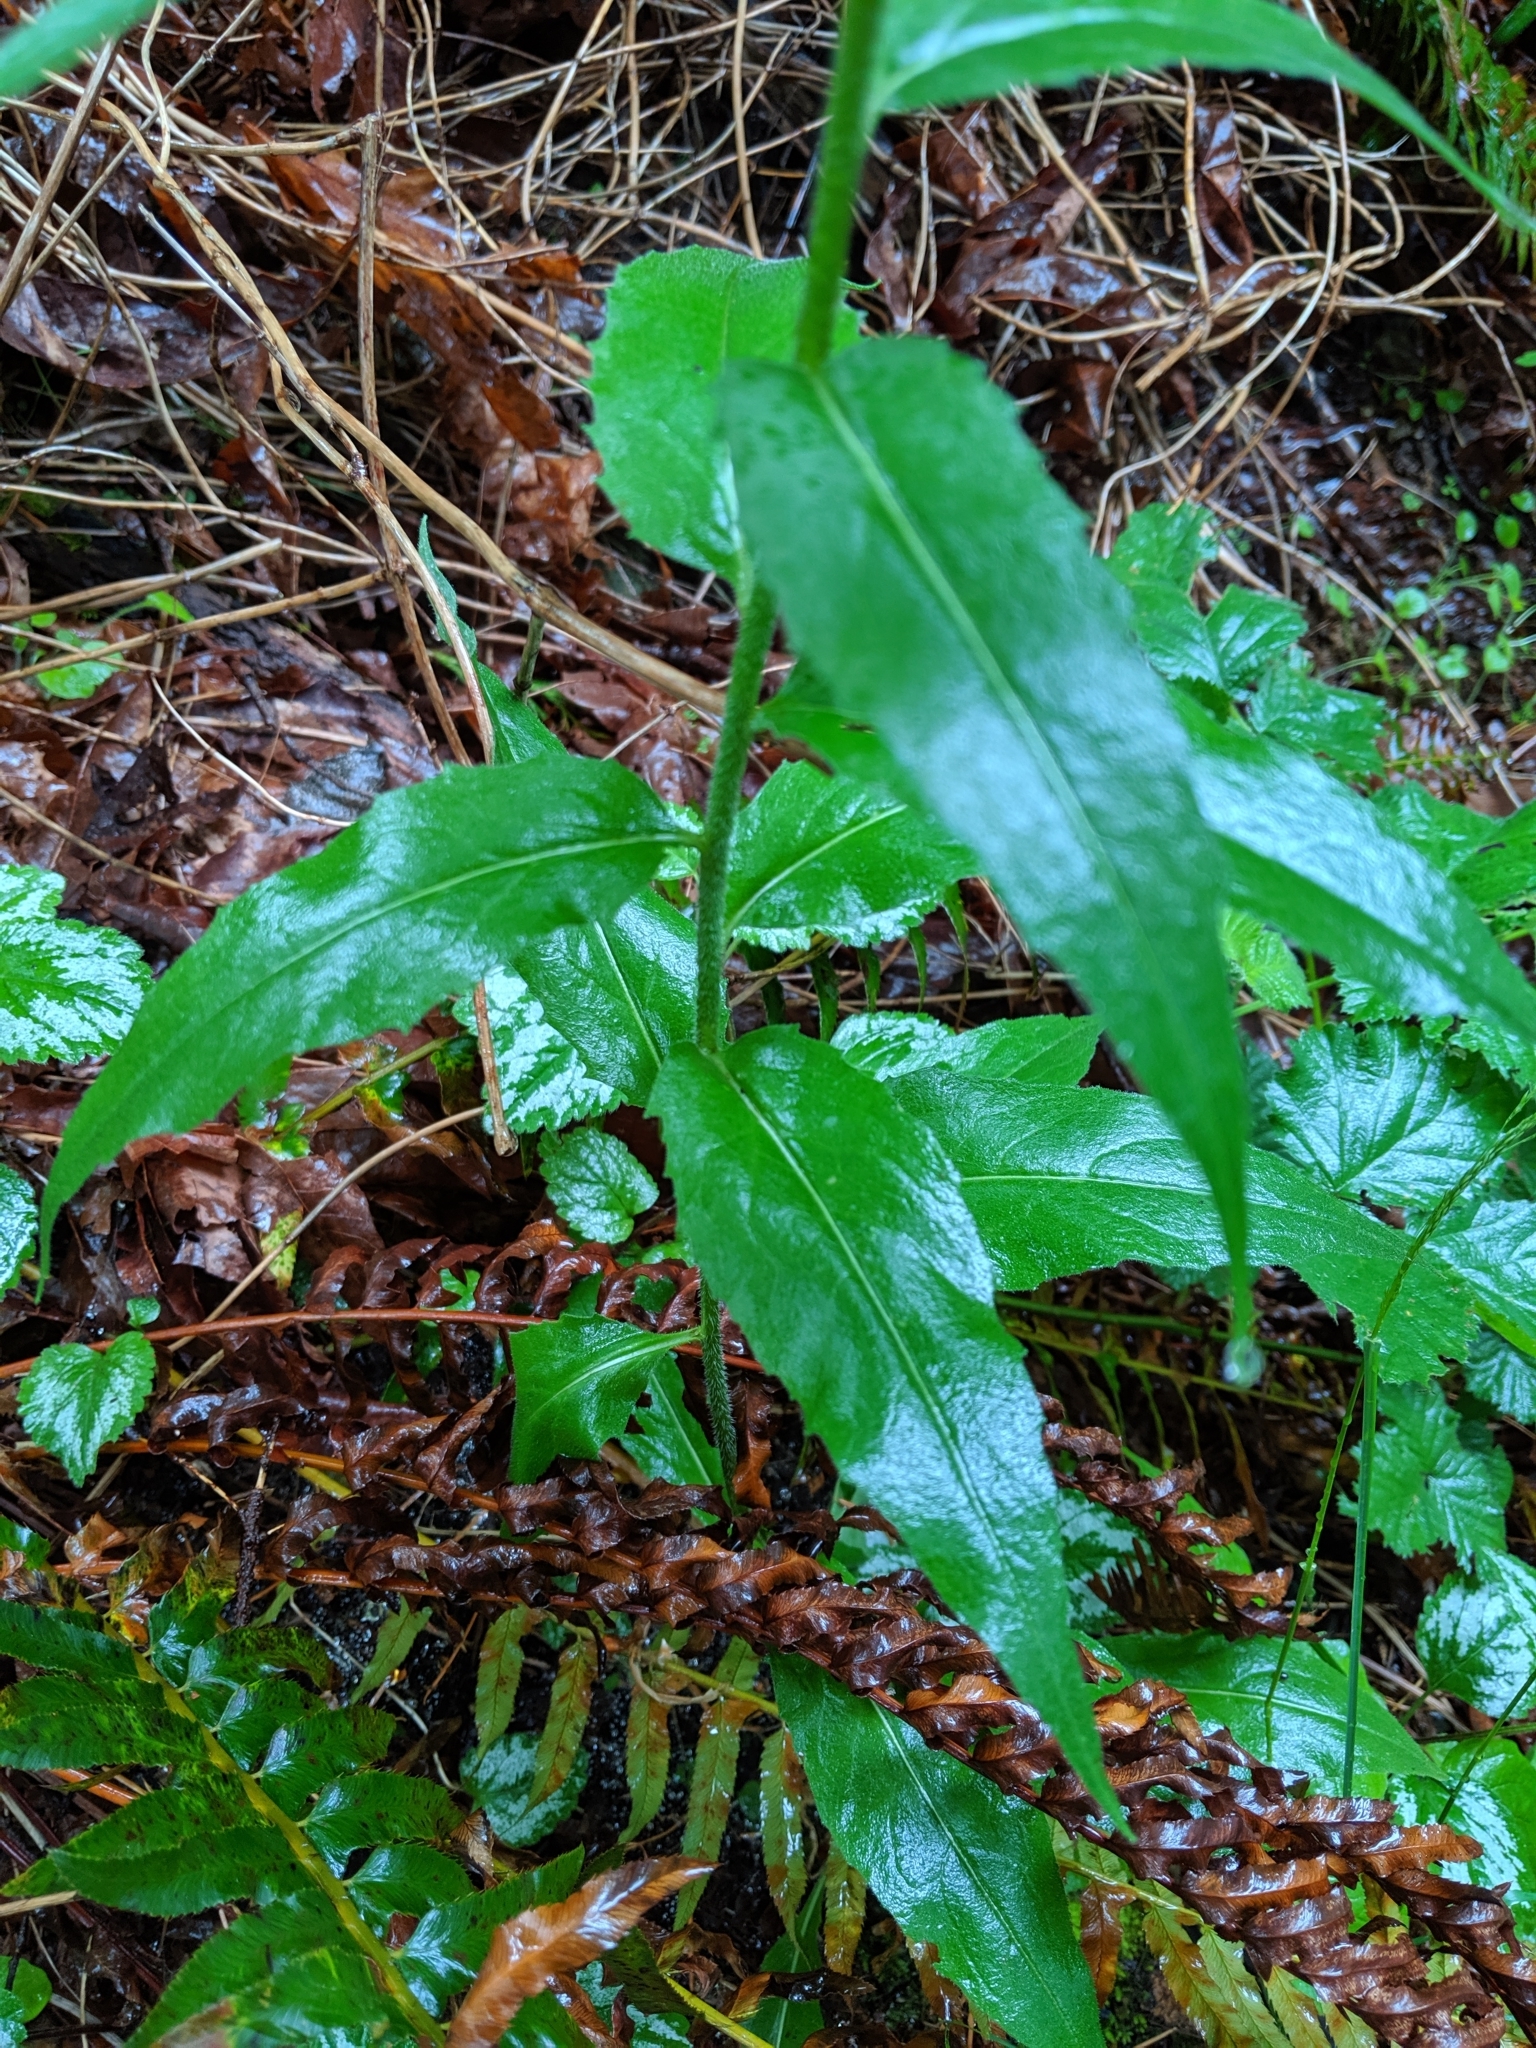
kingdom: Plantae
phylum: Tracheophyta
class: Magnoliopsida
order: Brassicales
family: Brassicaceae
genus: Hesperis
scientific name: Hesperis matronalis
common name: Dame's-violet
